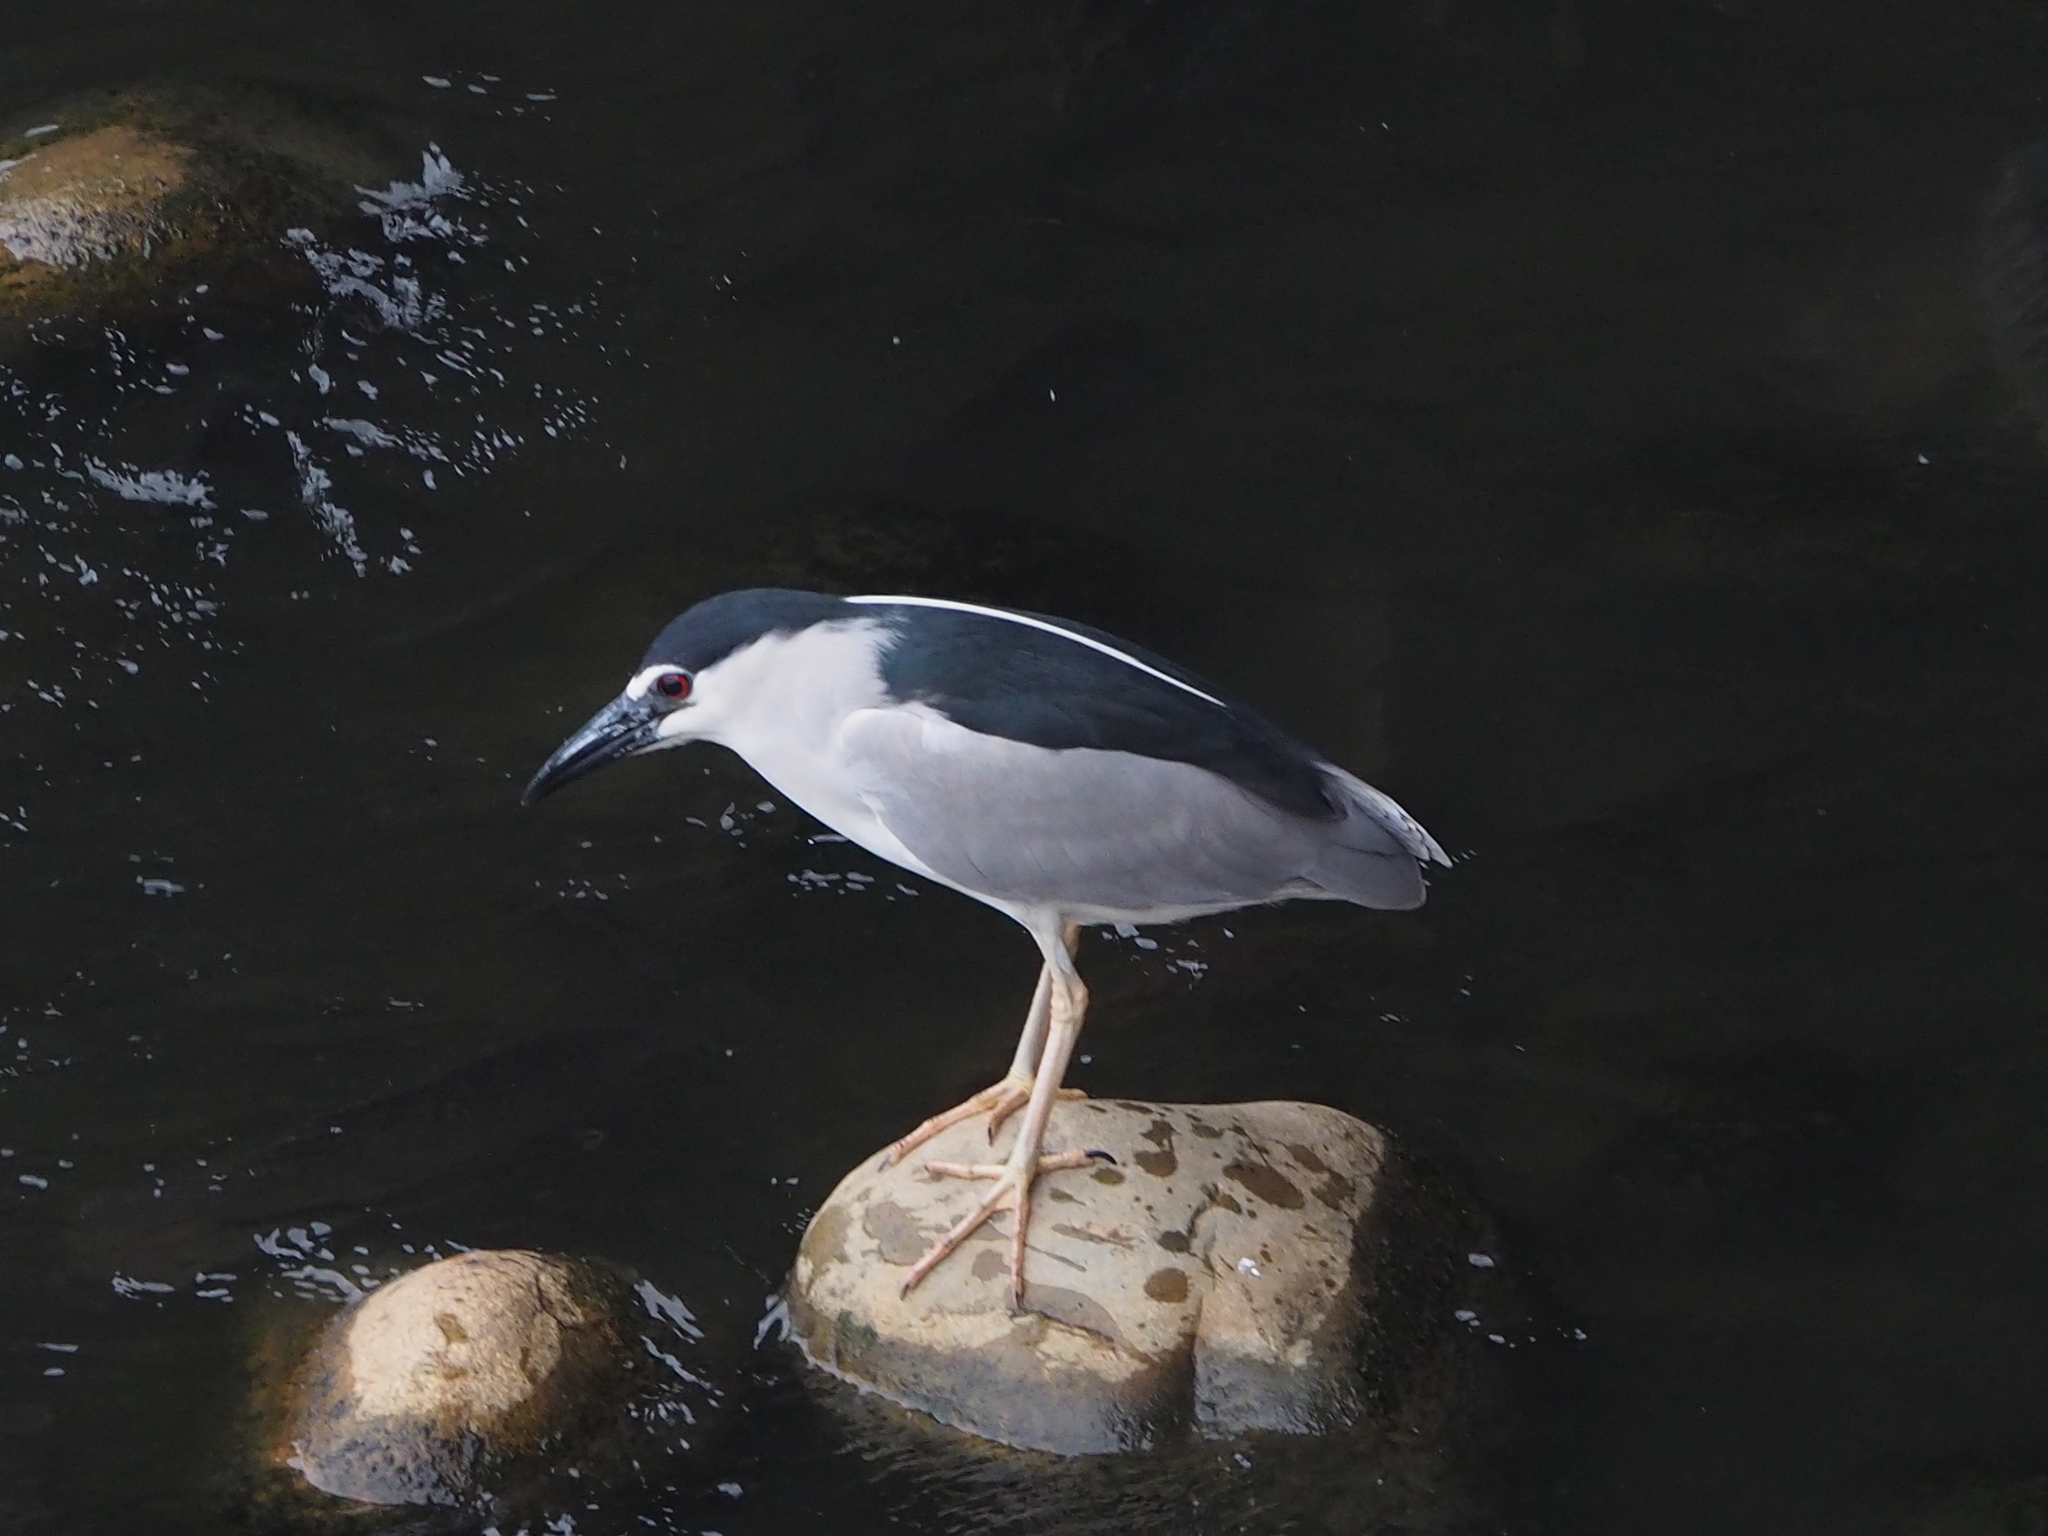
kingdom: Animalia
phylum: Chordata
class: Aves
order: Pelecaniformes
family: Ardeidae
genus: Nycticorax
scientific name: Nycticorax nycticorax
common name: Black-crowned night heron
